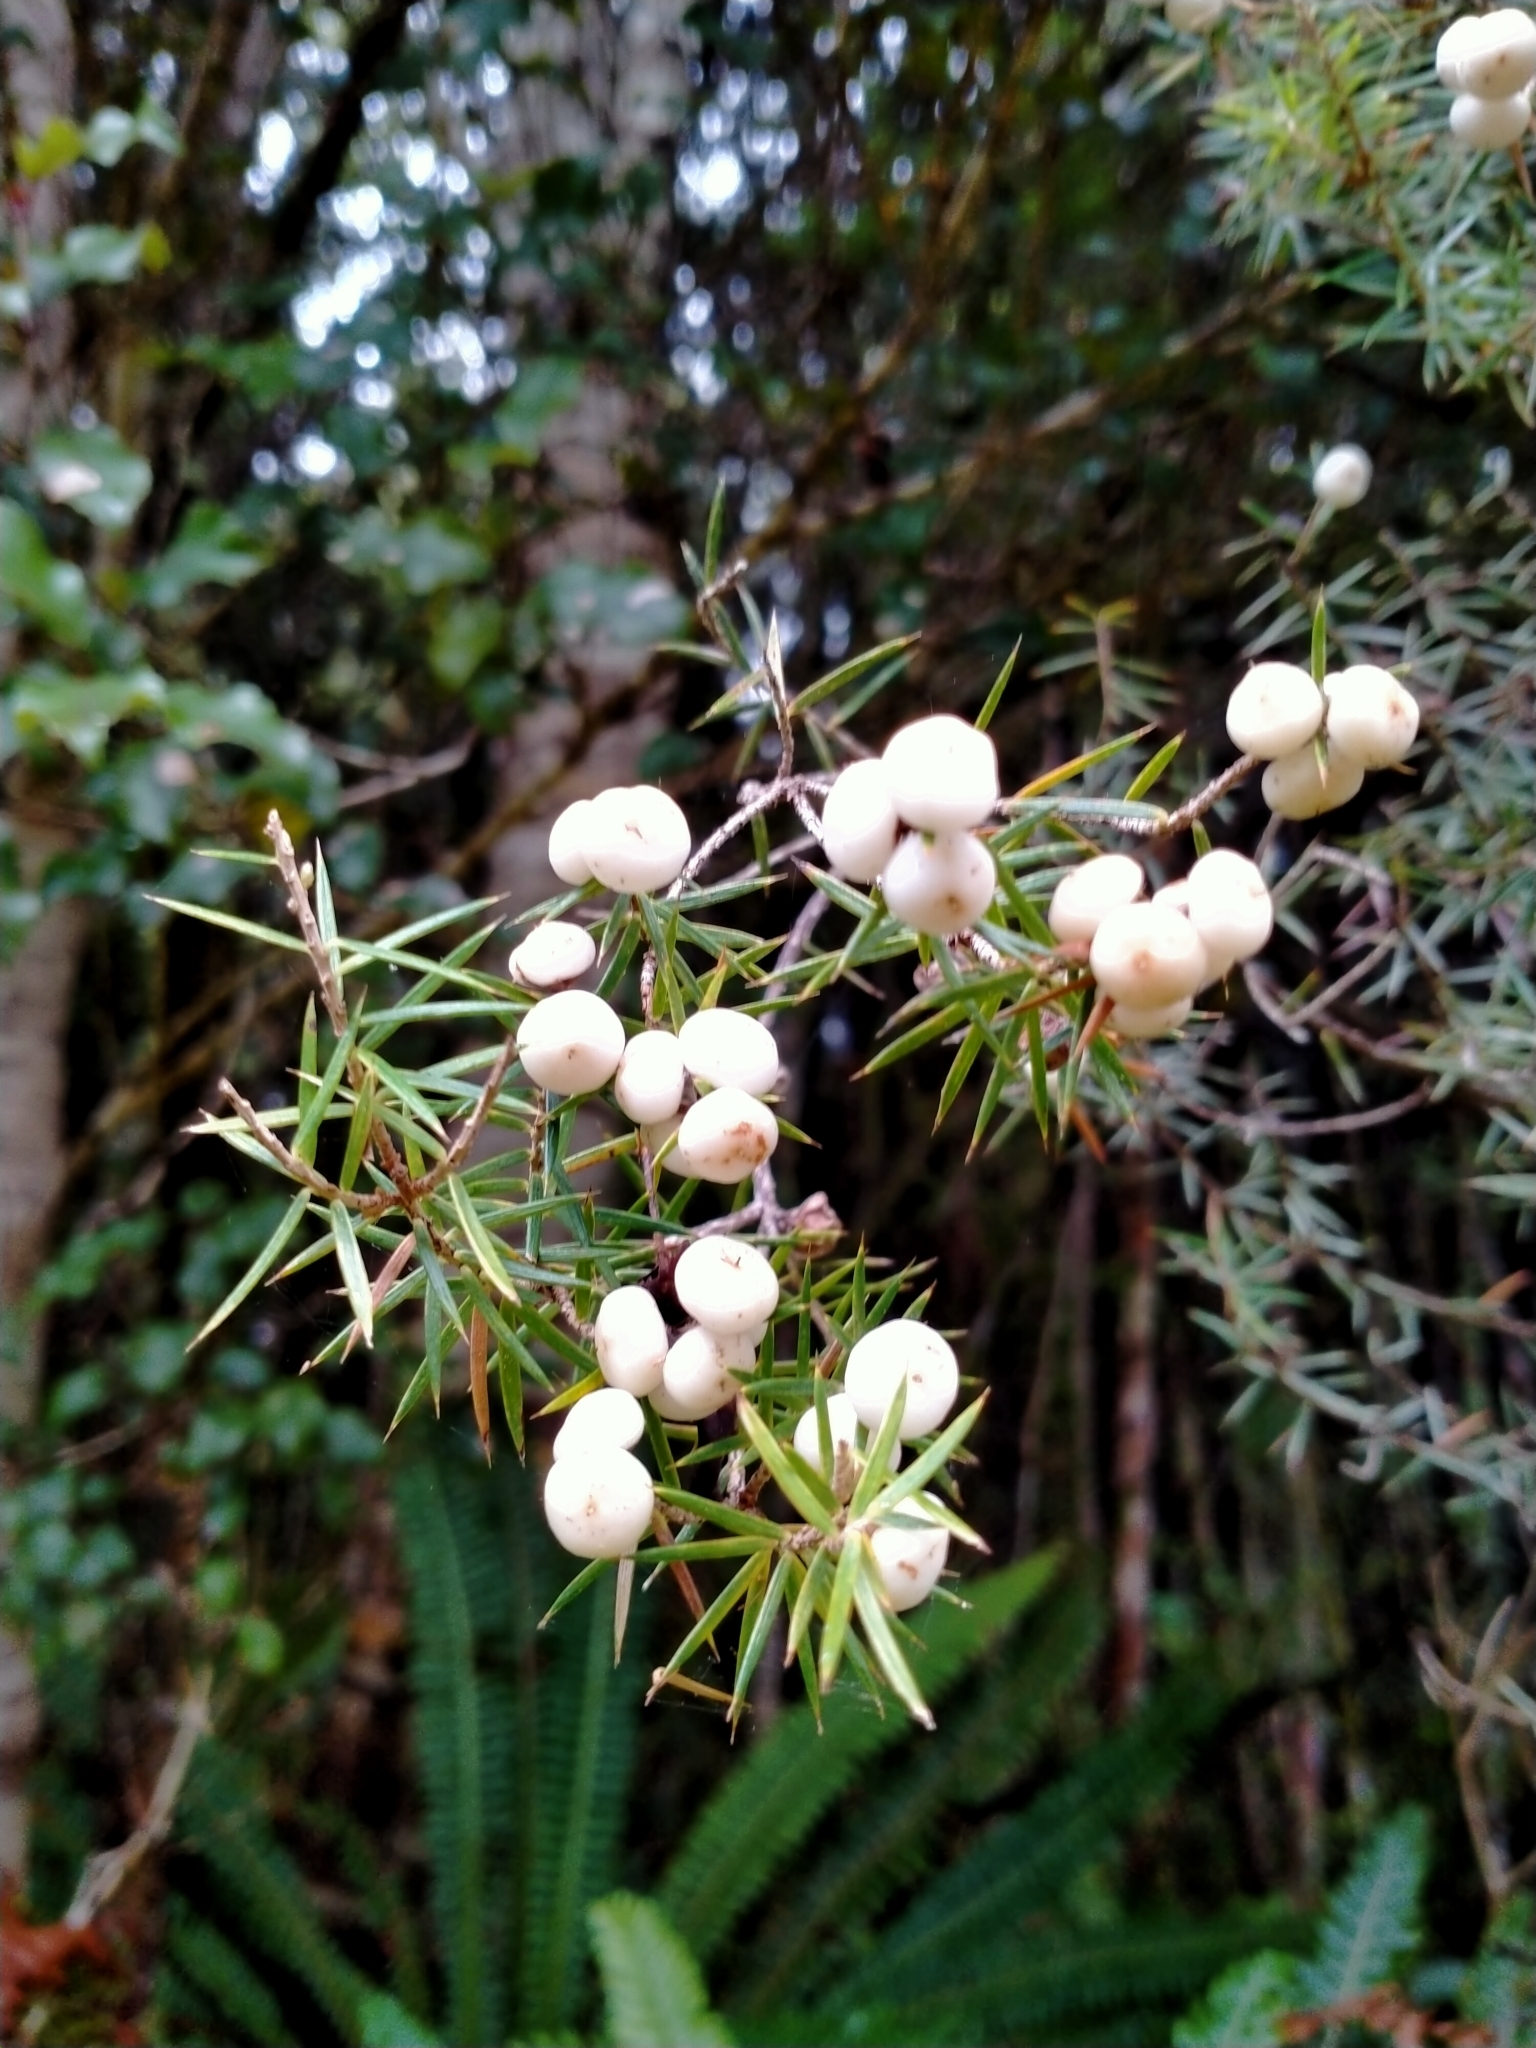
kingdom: Plantae
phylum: Tracheophyta
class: Magnoliopsida
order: Ericales
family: Ericaceae
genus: Leptecophylla
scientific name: Leptecophylla juniperina
